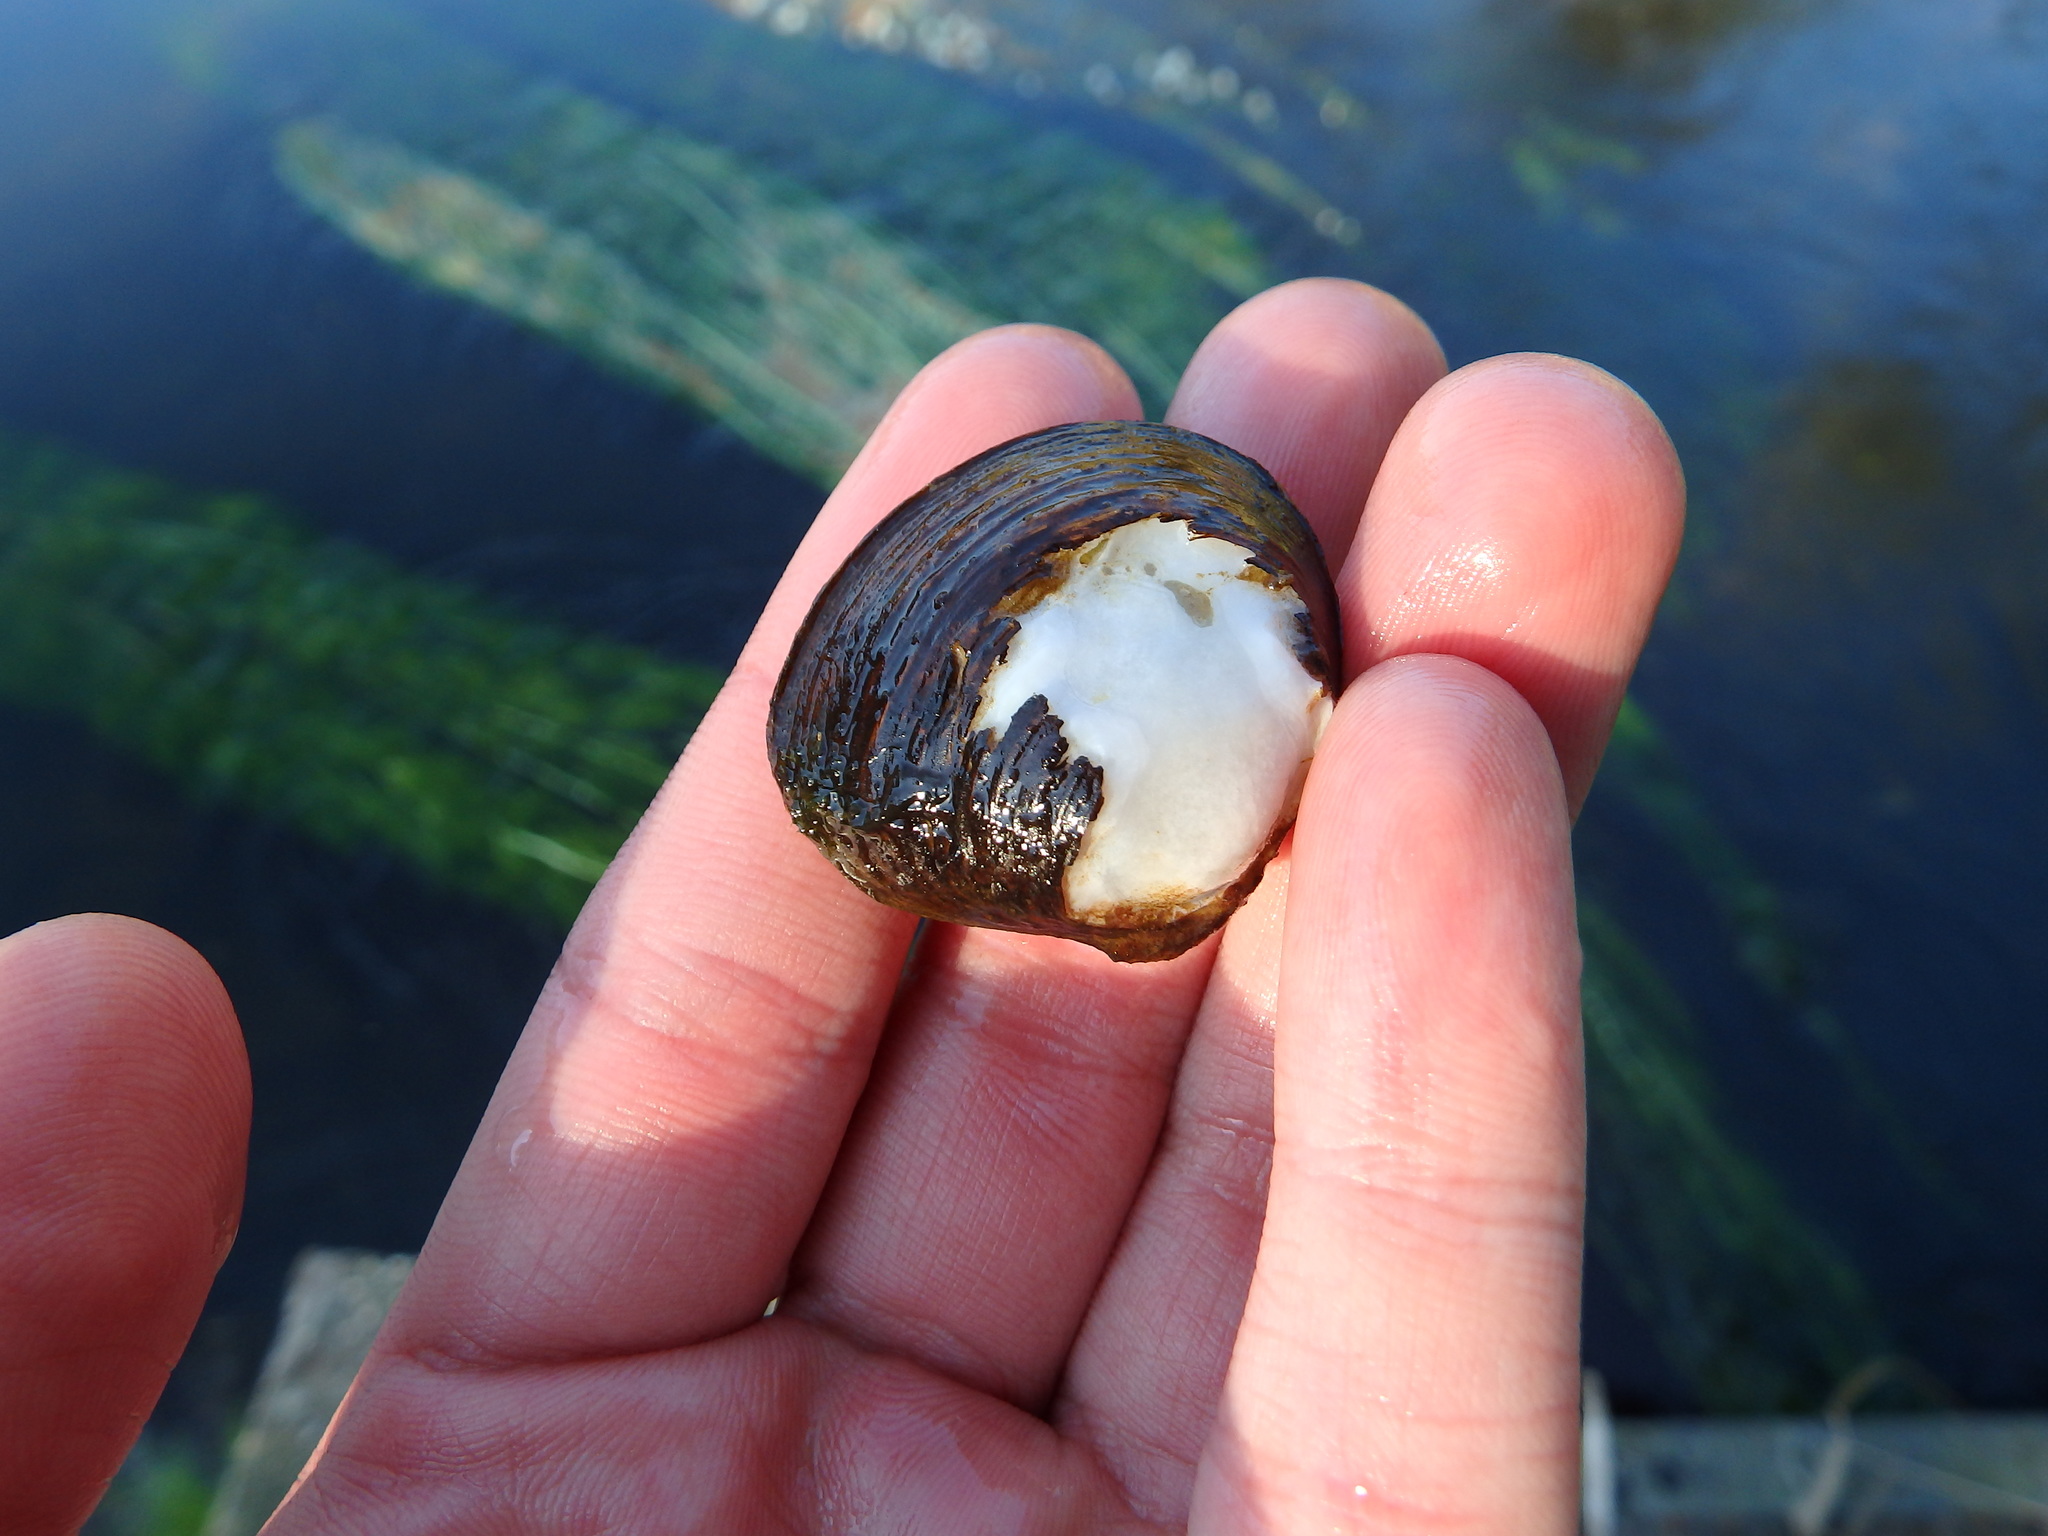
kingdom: Animalia
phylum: Mollusca
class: Bivalvia
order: Venerida
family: Cyrenidae
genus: Corbicula
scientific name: Corbicula fluminea
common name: Asian clam
